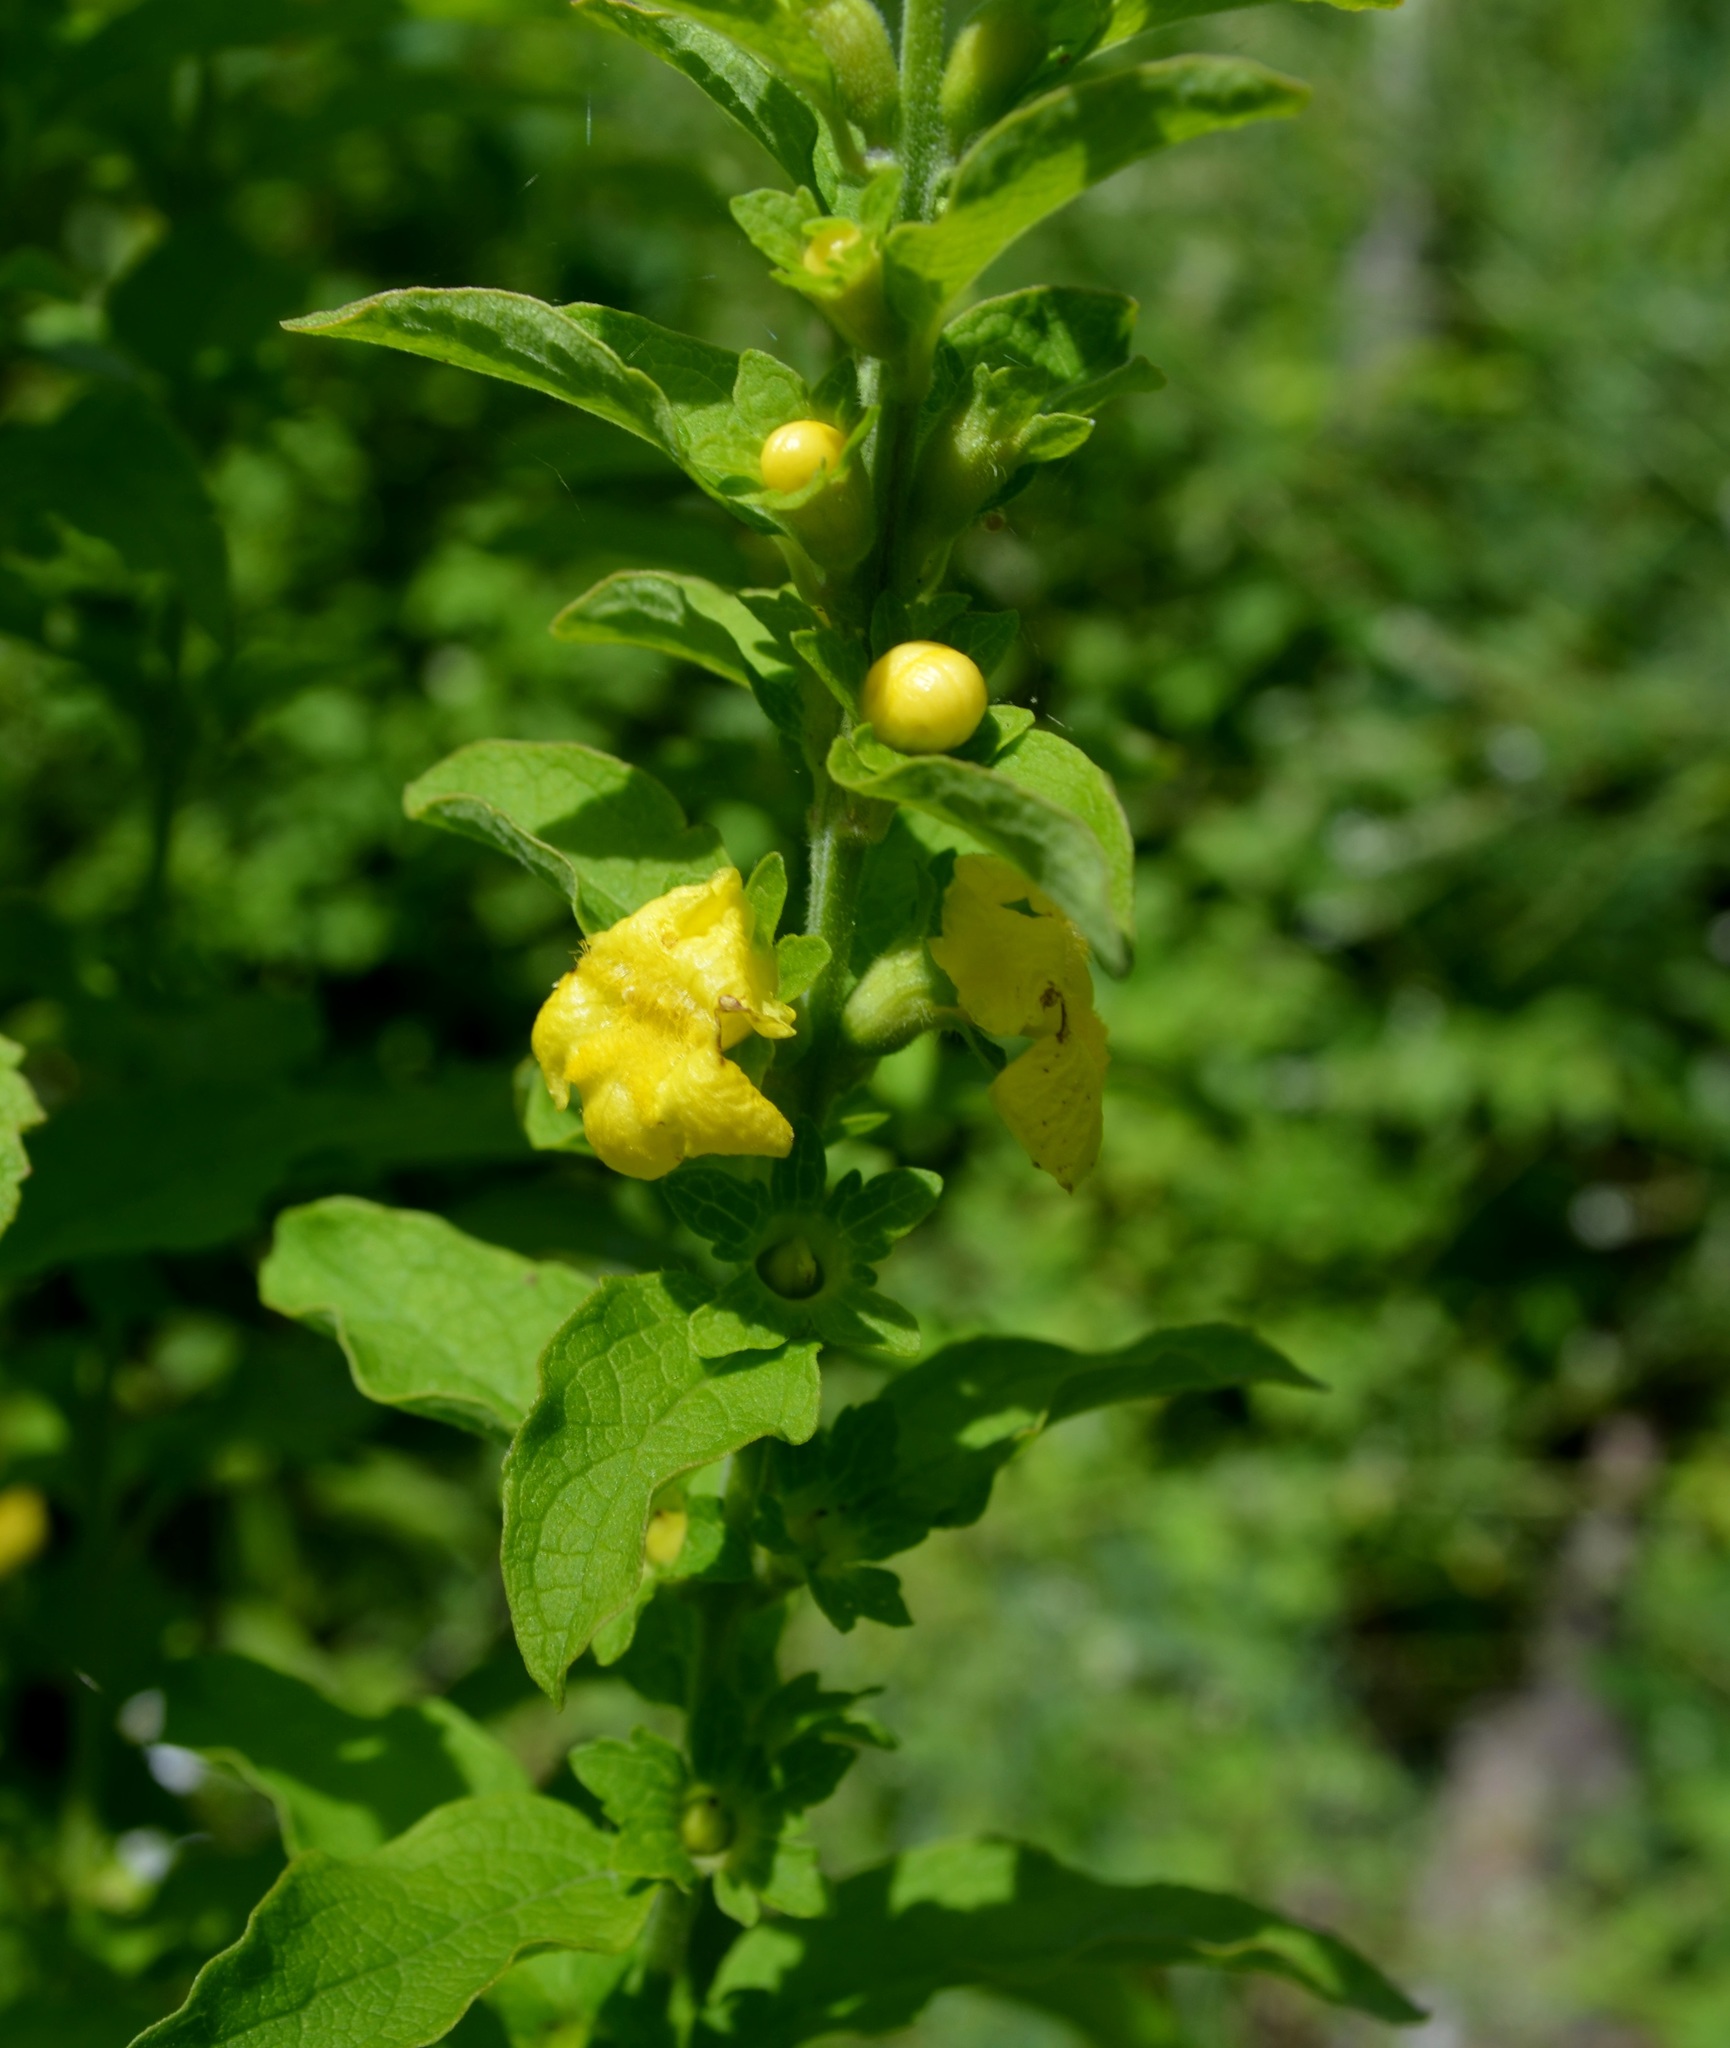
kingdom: Plantae
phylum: Tracheophyta
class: Magnoliopsida
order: Lamiales
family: Orobanchaceae
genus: Dasistoma
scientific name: Dasistoma macrophyllum
